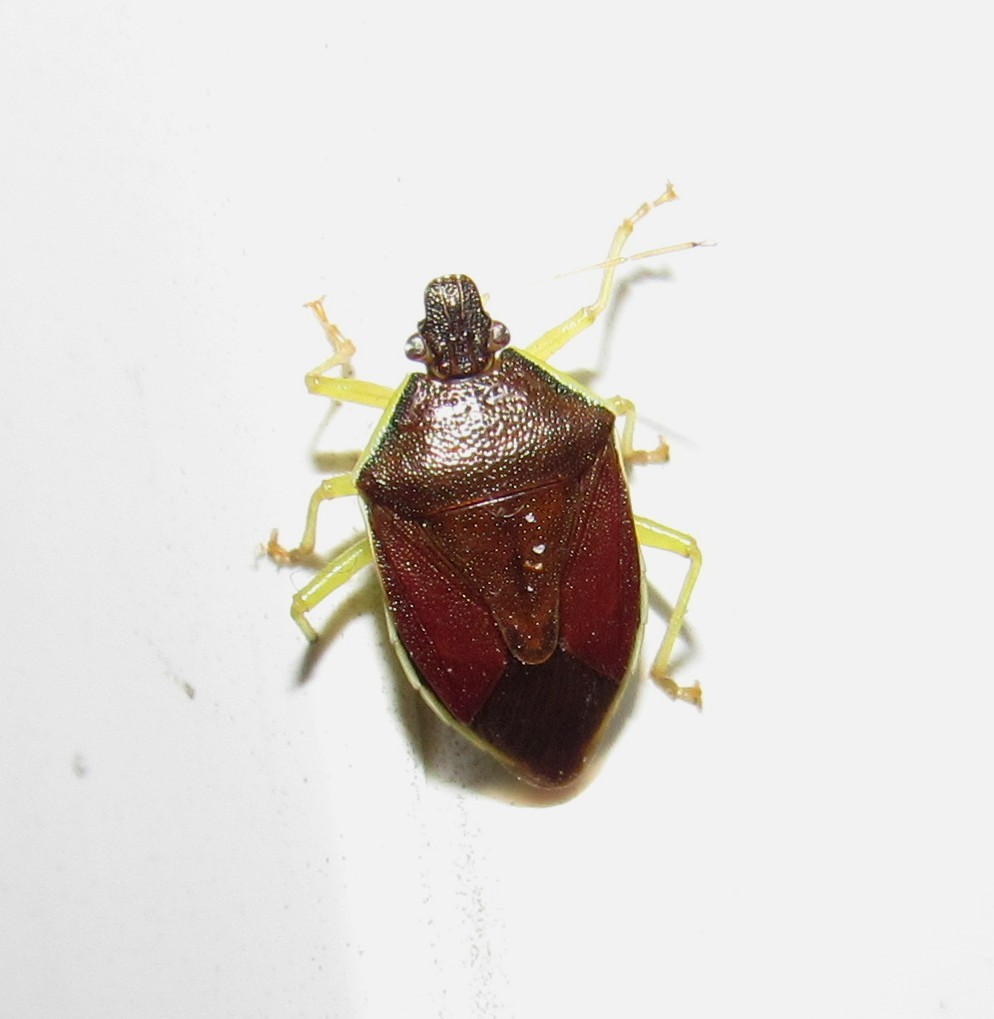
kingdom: Animalia
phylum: Arthropoda
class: Insecta
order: Hemiptera
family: Pentatomidae
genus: Tynacantha
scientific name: Tynacantha marginata
